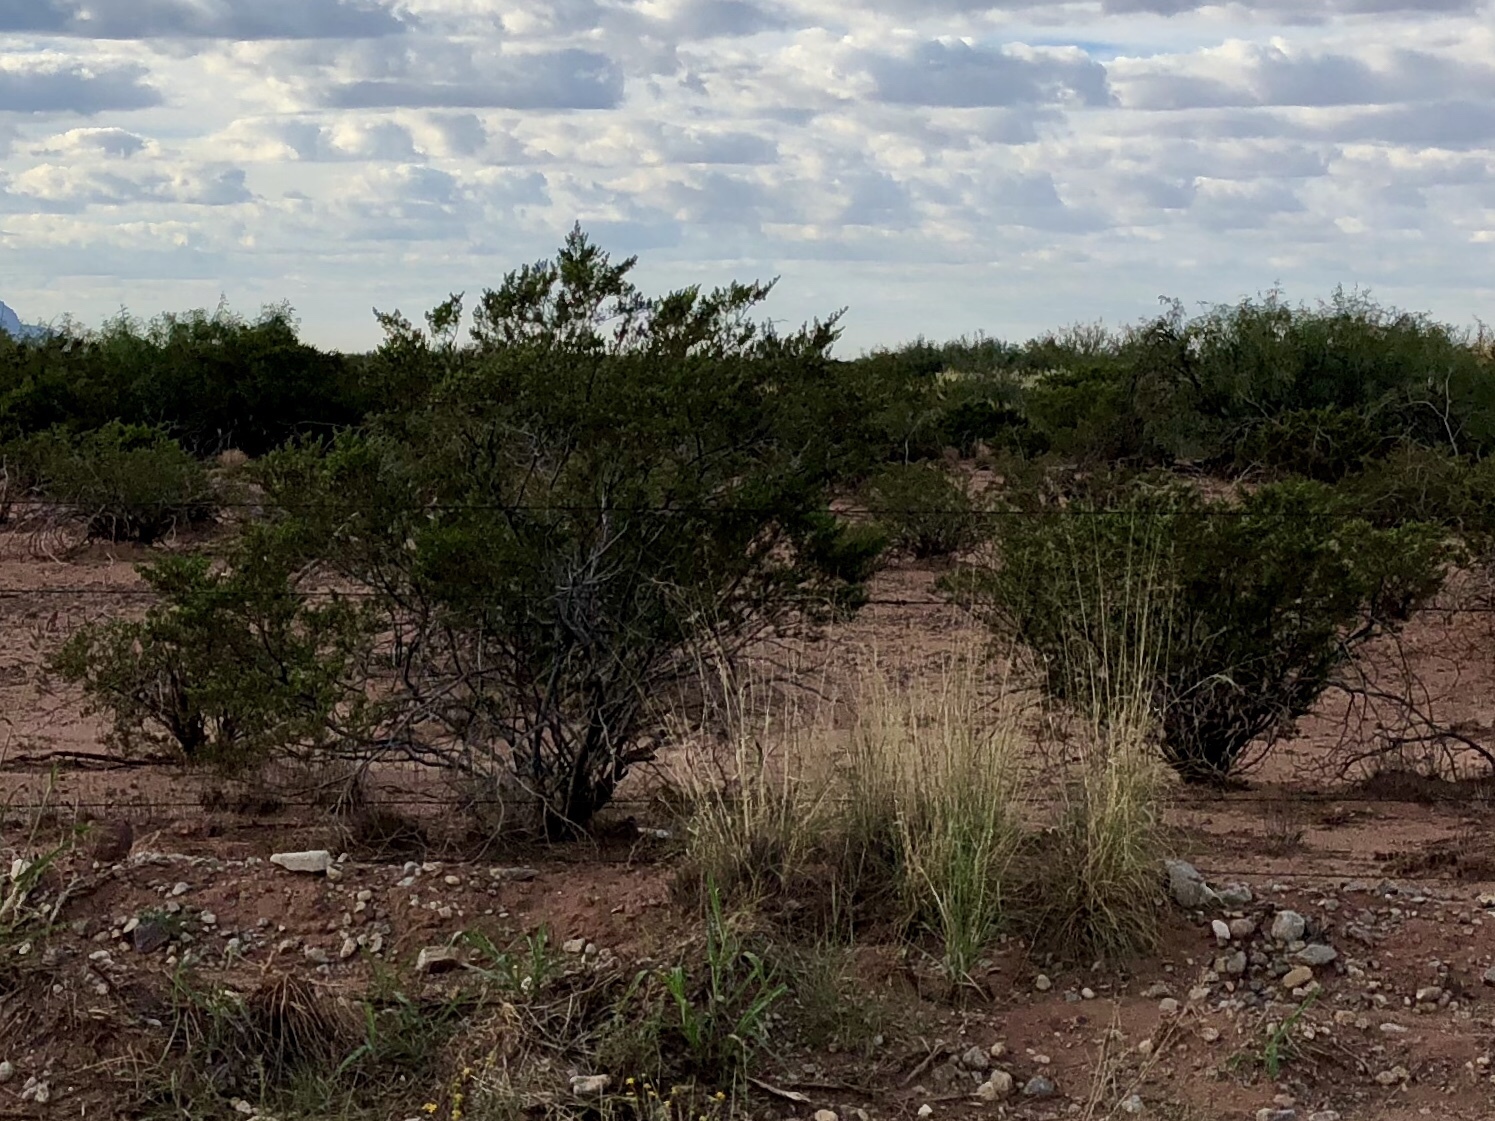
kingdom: Plantae
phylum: Tracheophyta
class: Magnoliopsida
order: Zygophyllales
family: Zygophyllaceae
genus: Larrea
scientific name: Larrea tridentata
